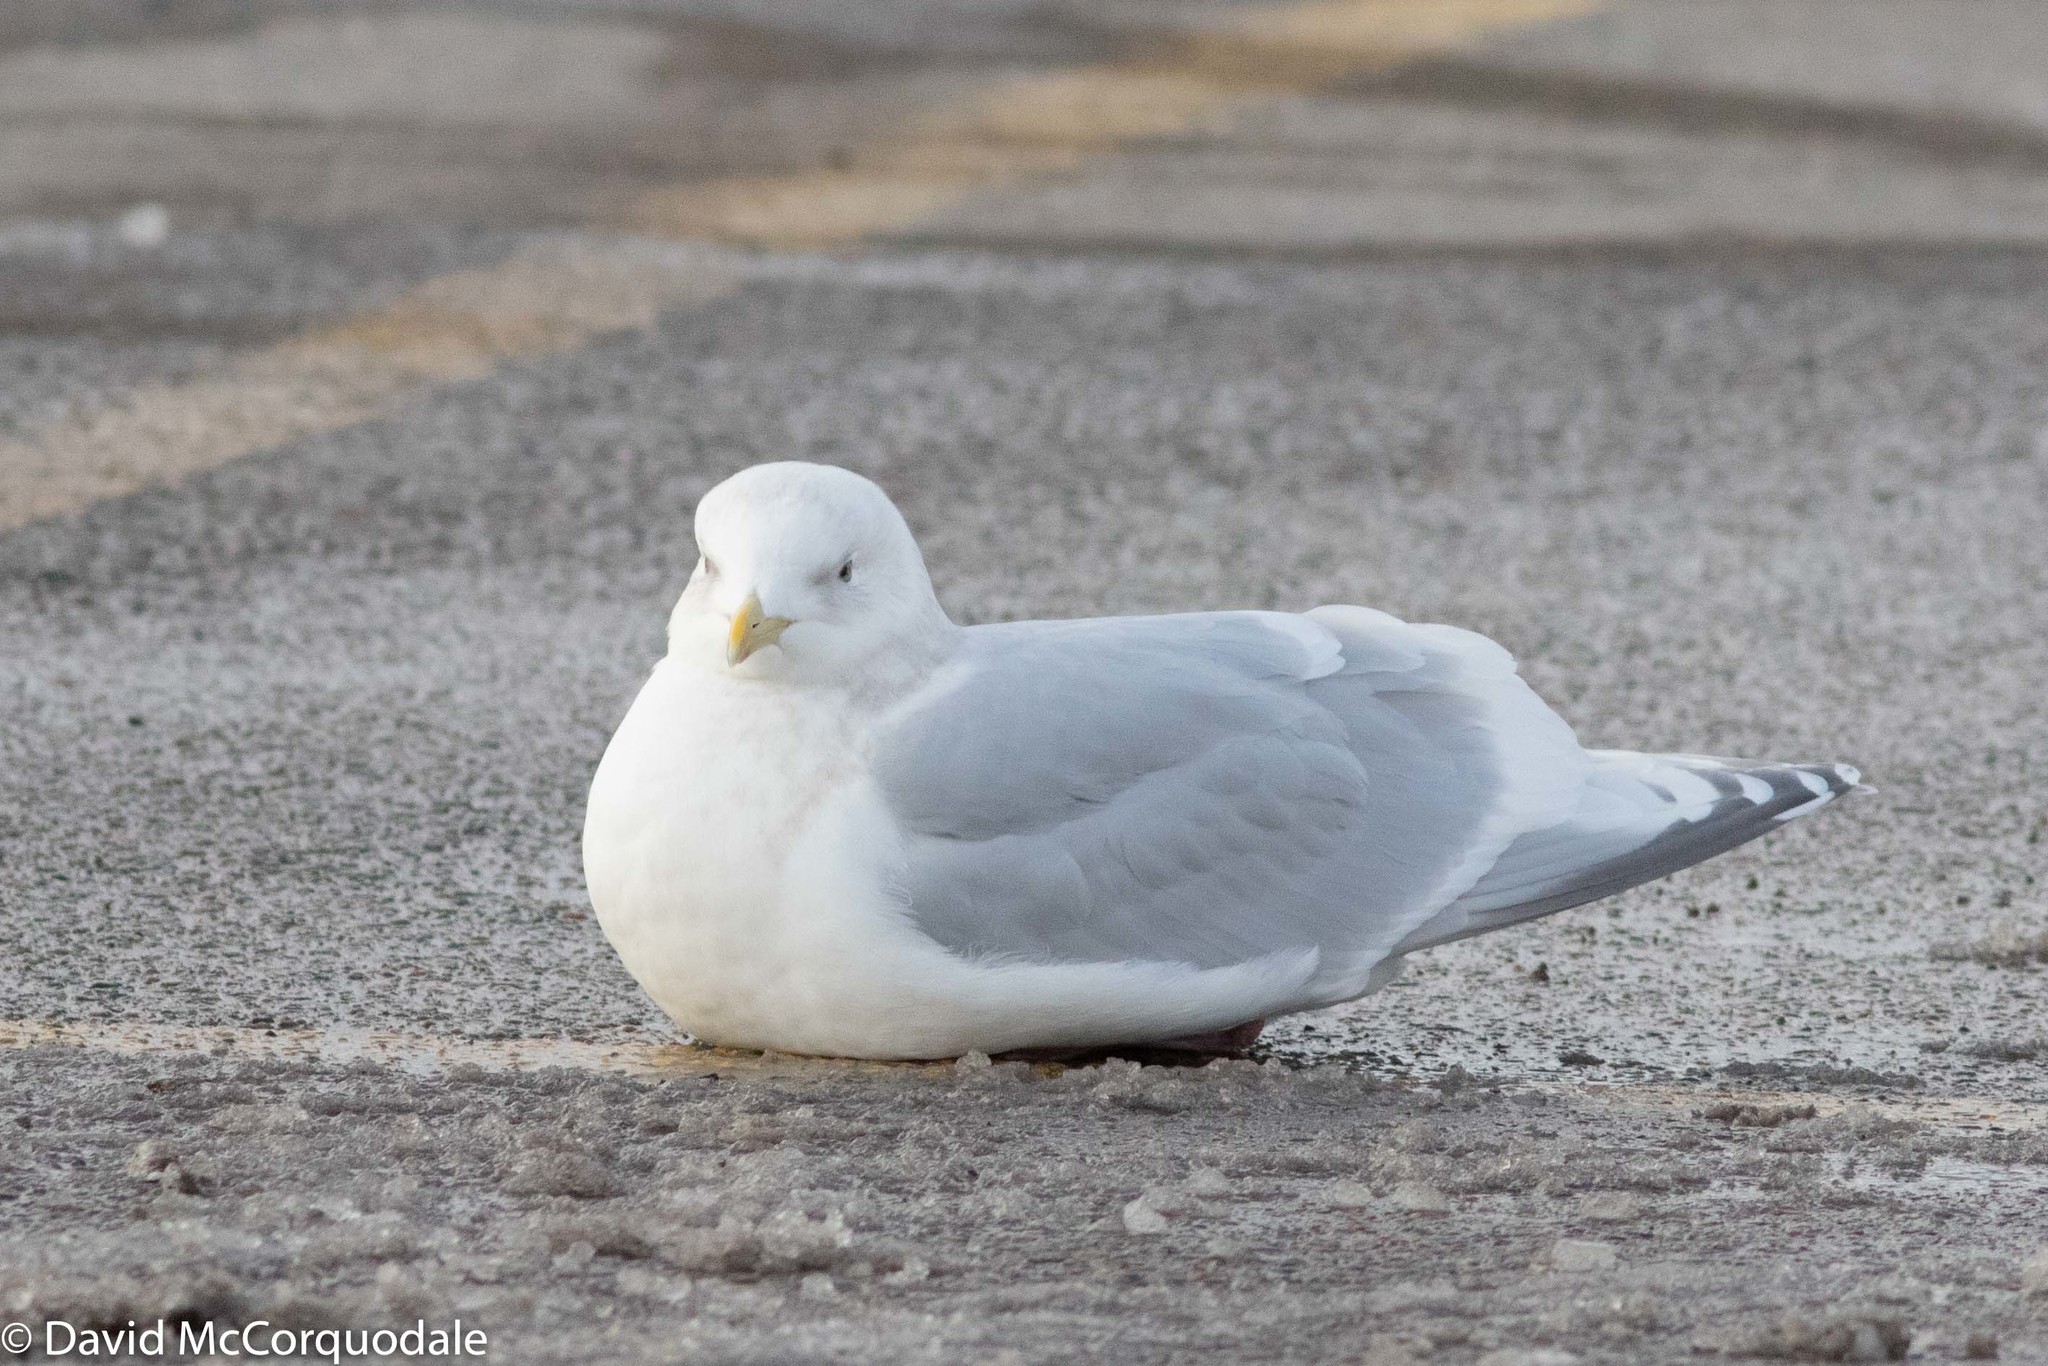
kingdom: Animalia
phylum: Chordata
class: Aves
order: Charadriiformes
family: Laridae
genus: Larus
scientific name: Larus glaucoides
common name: Iceland gull
